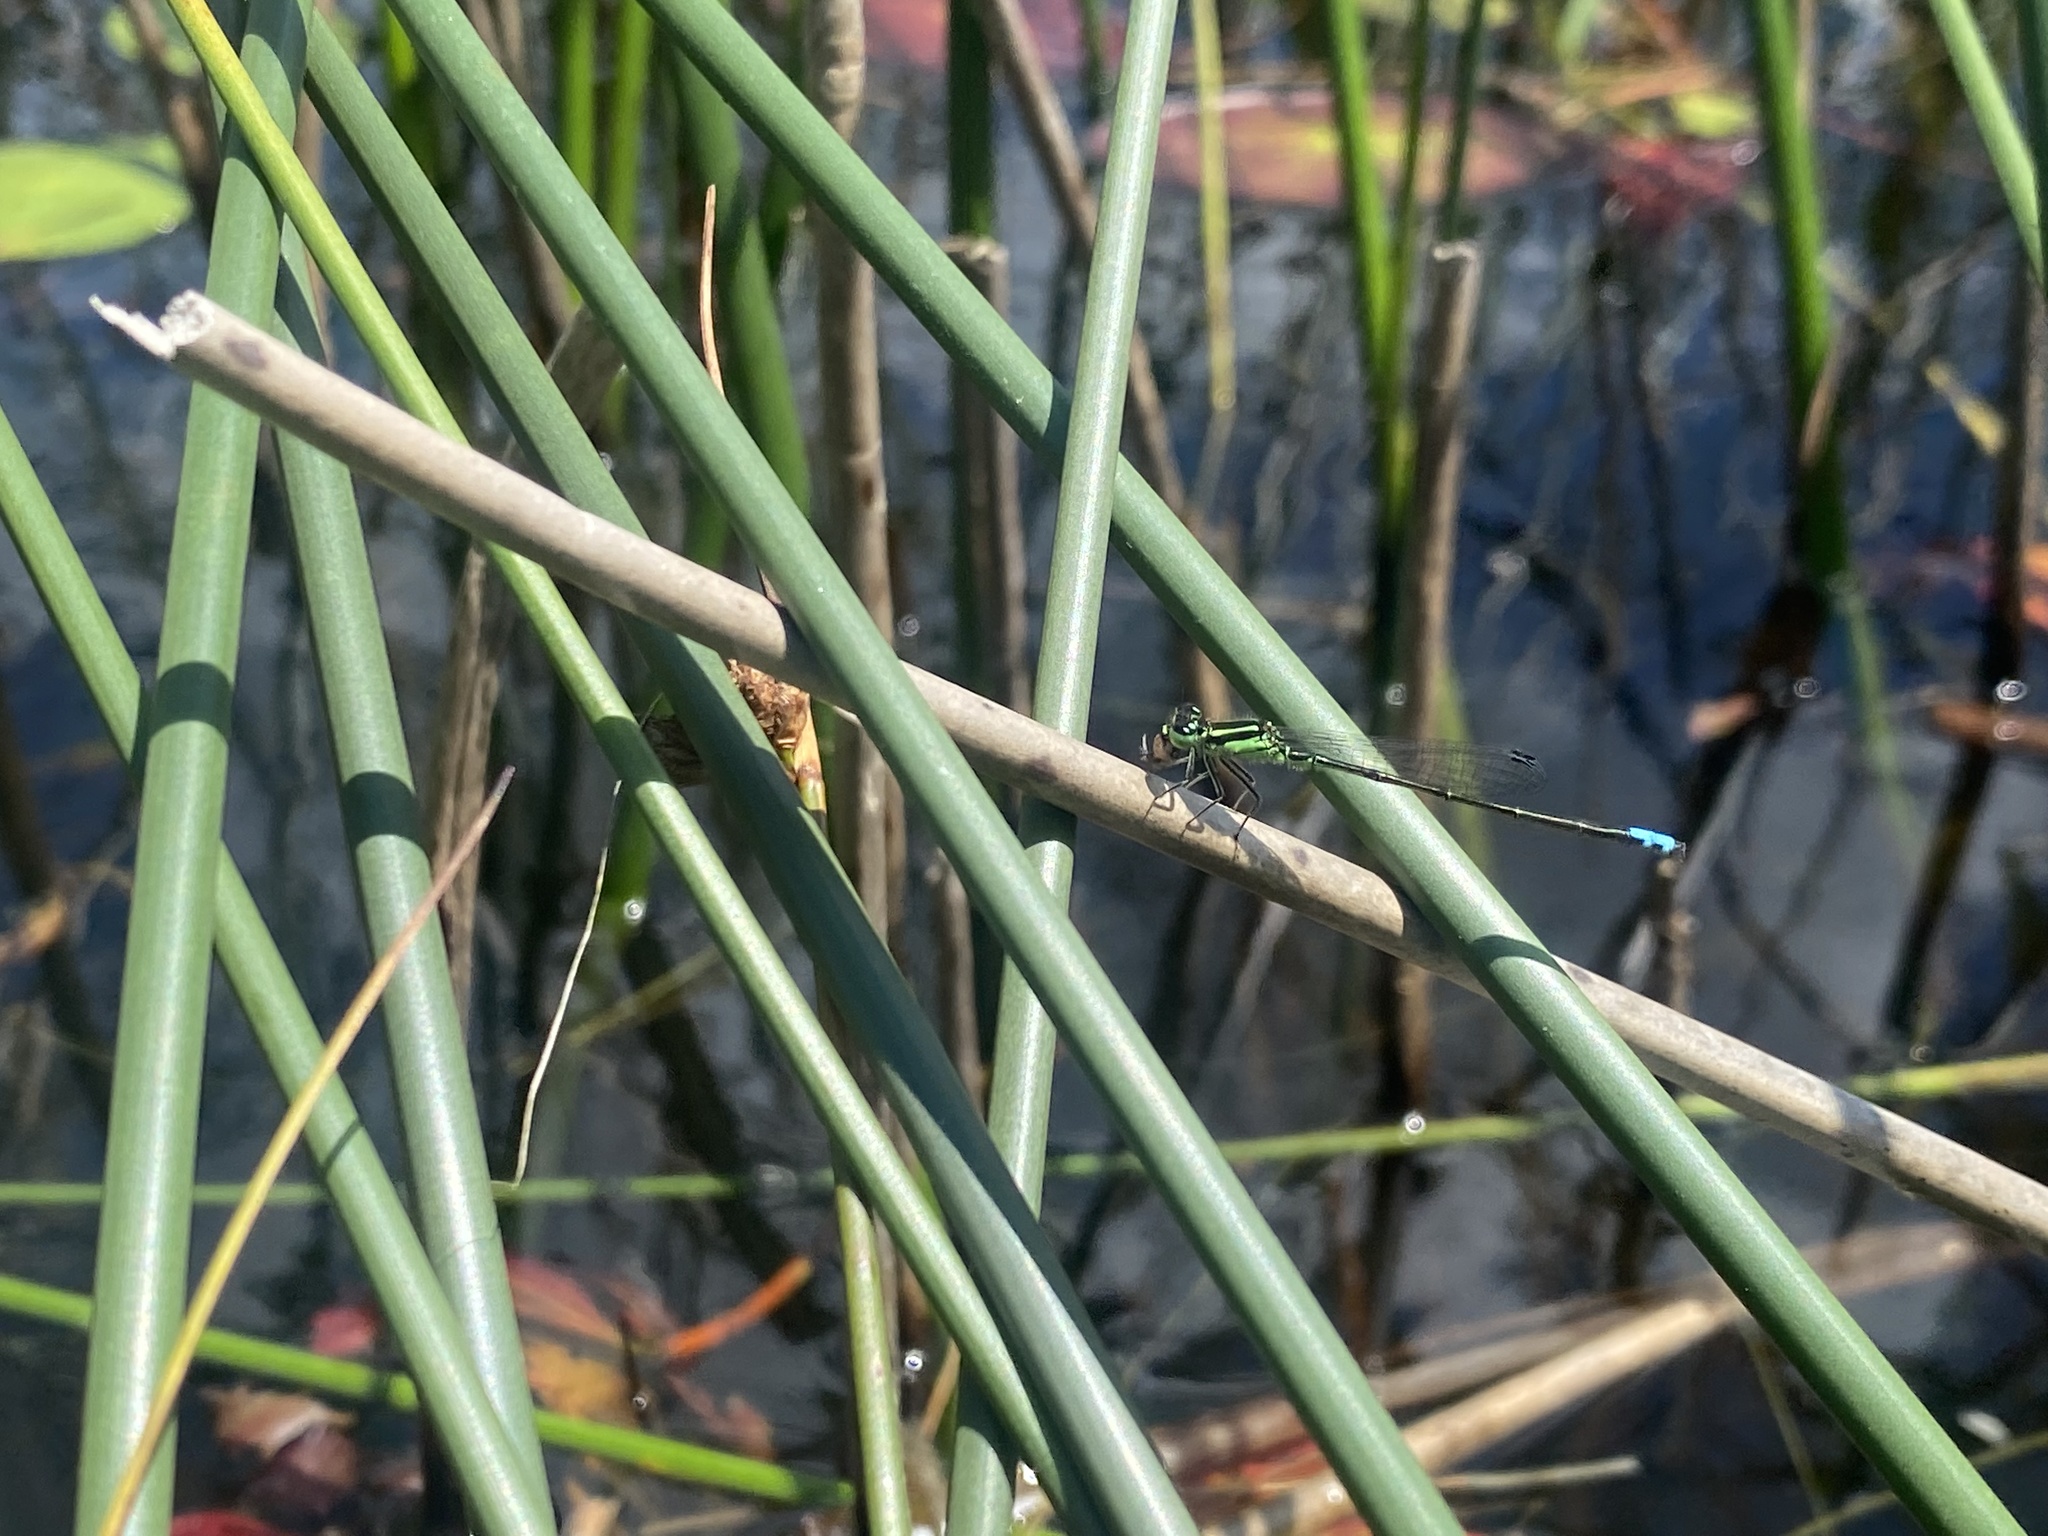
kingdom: Animalia
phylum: Arthropoda
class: Insecta
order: Odonata
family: Coenagrionidae
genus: Ischnura
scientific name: Ischnura verticalis
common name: Eastern forktail
